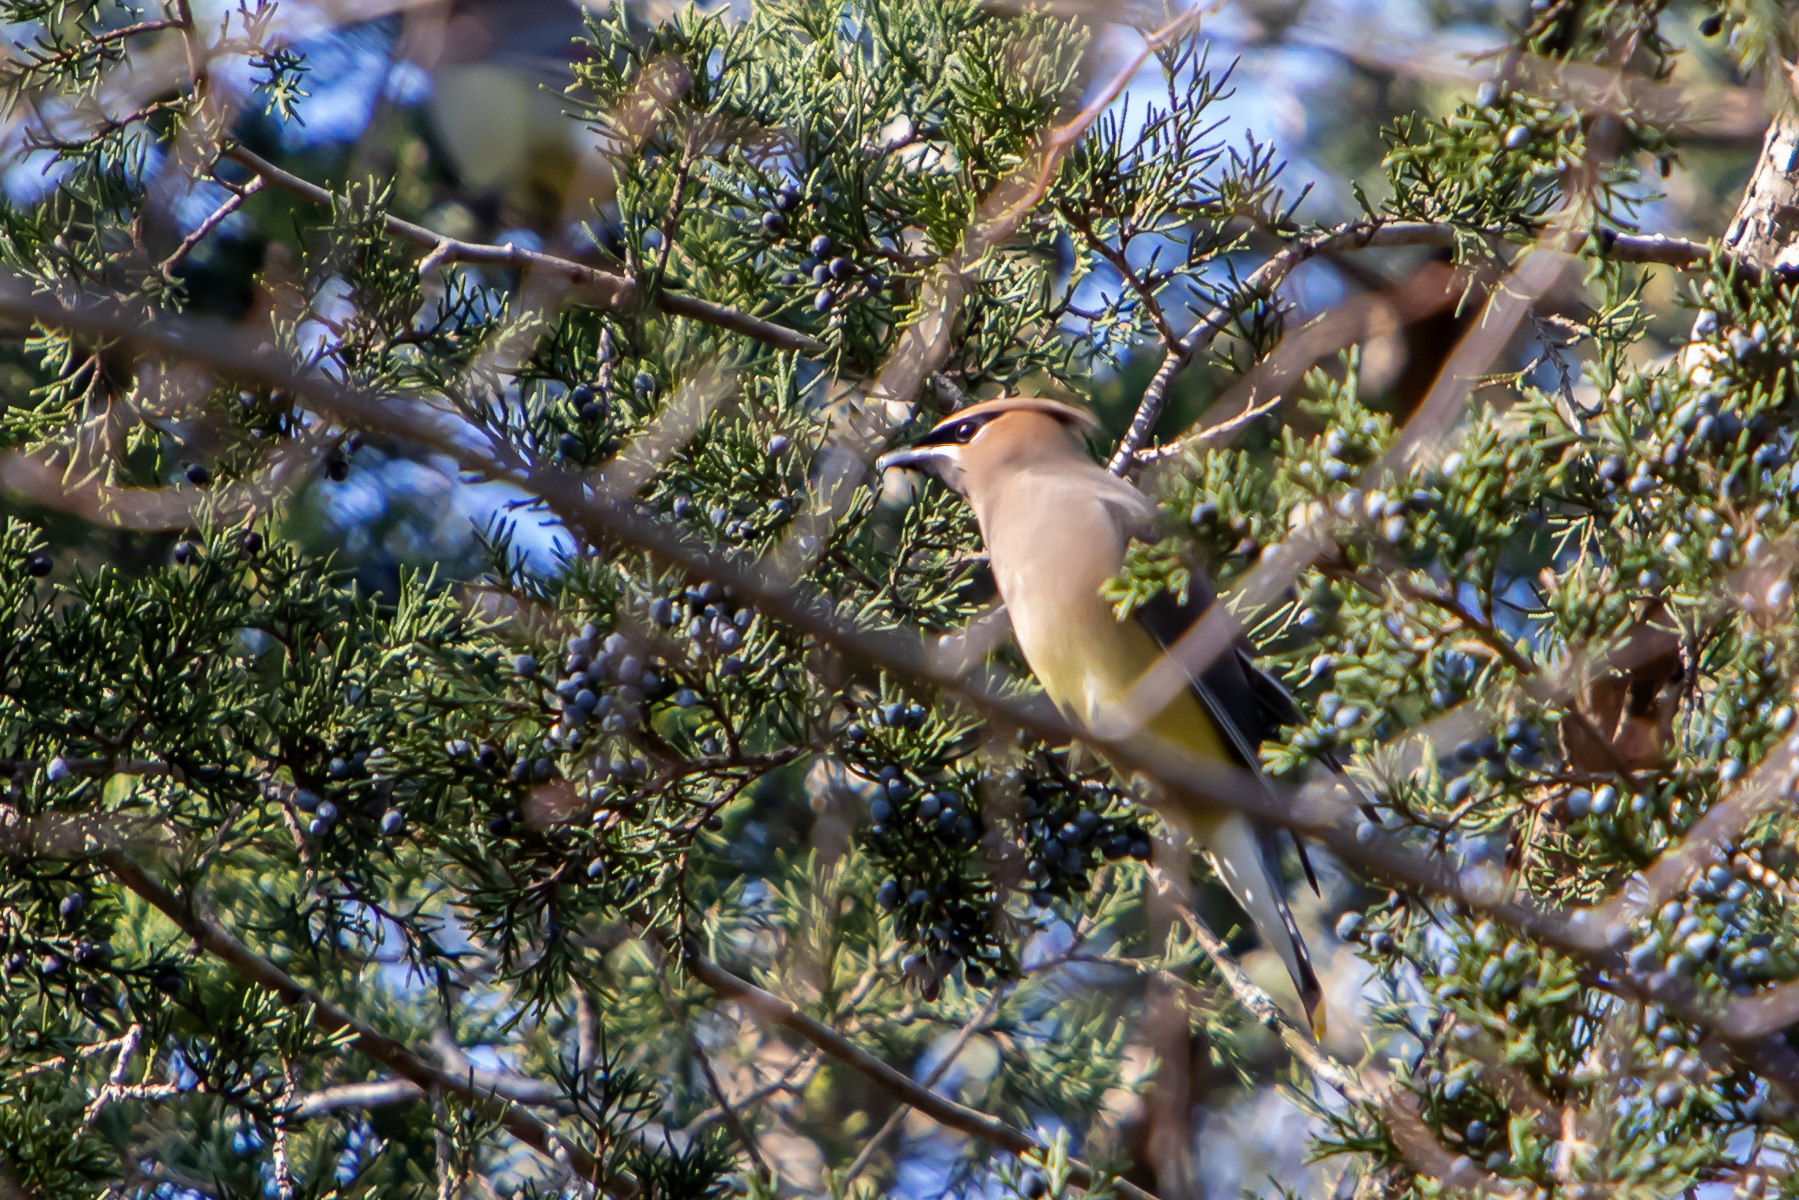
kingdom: Animalia
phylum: Chordata
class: Aves
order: Passeriformes
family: Bombycillidae
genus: Bombycilla
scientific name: Bombycilla cedrorum
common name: Cedar waxwing
